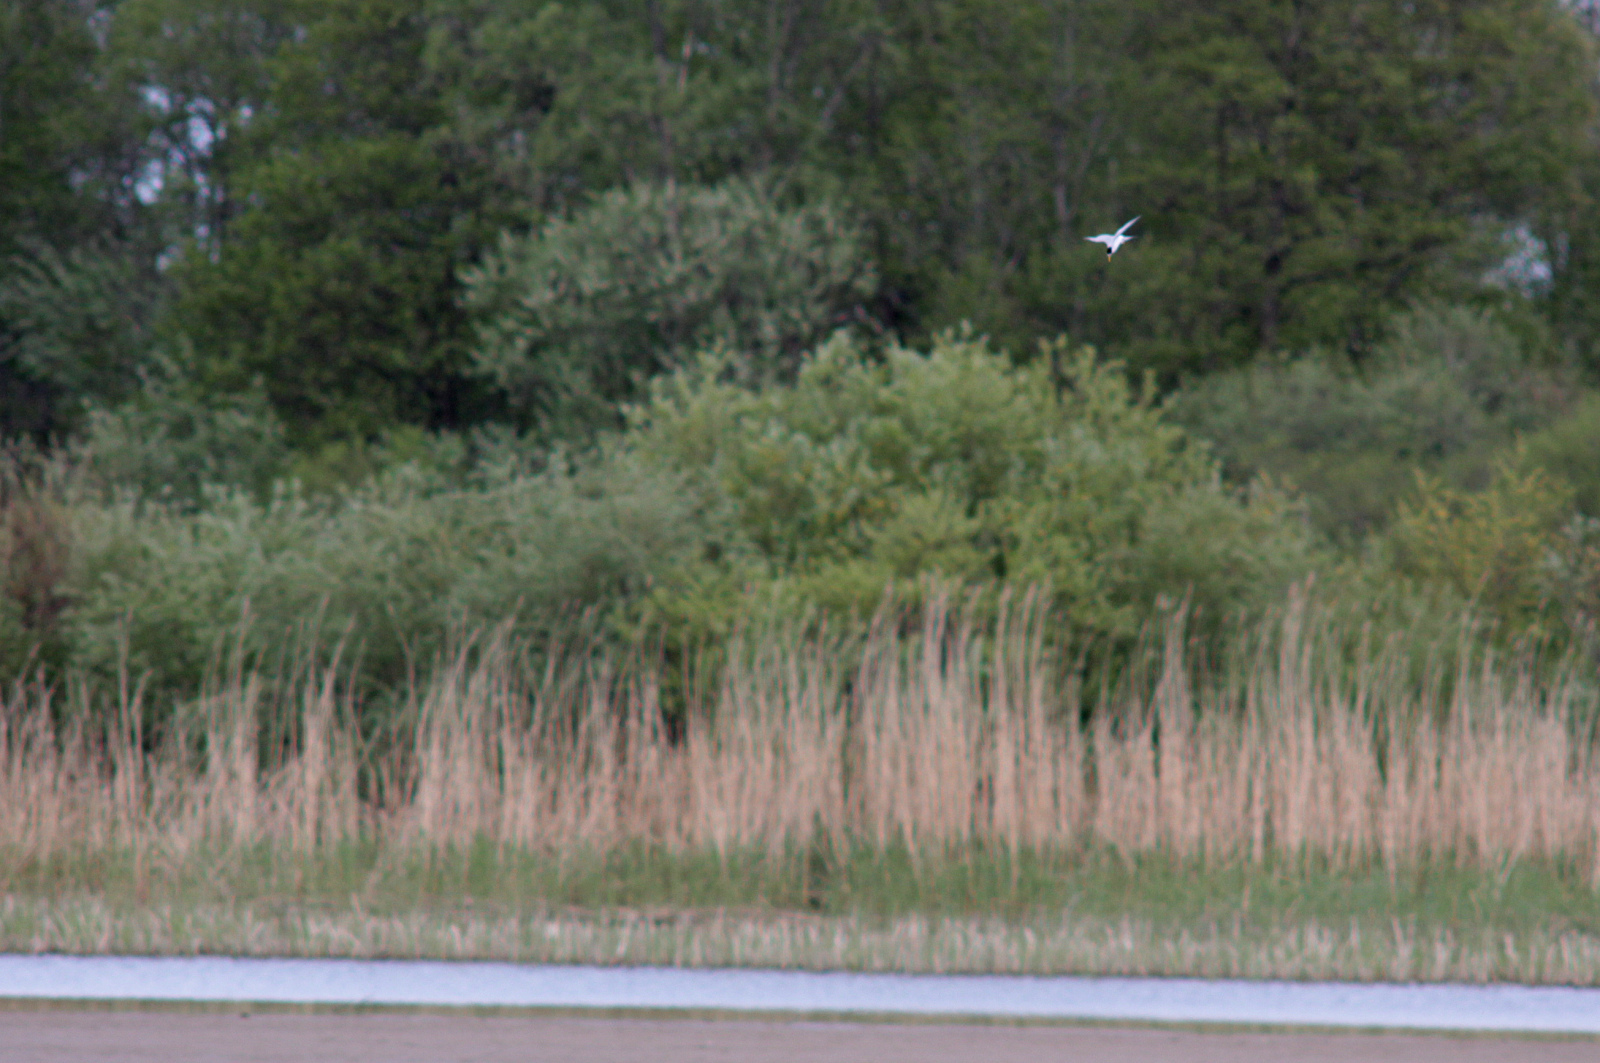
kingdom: Animalia
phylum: Chordata
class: Aves
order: Charadriiformes
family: Laridae
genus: Sternula
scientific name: Sternula albifrons
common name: Little tern
